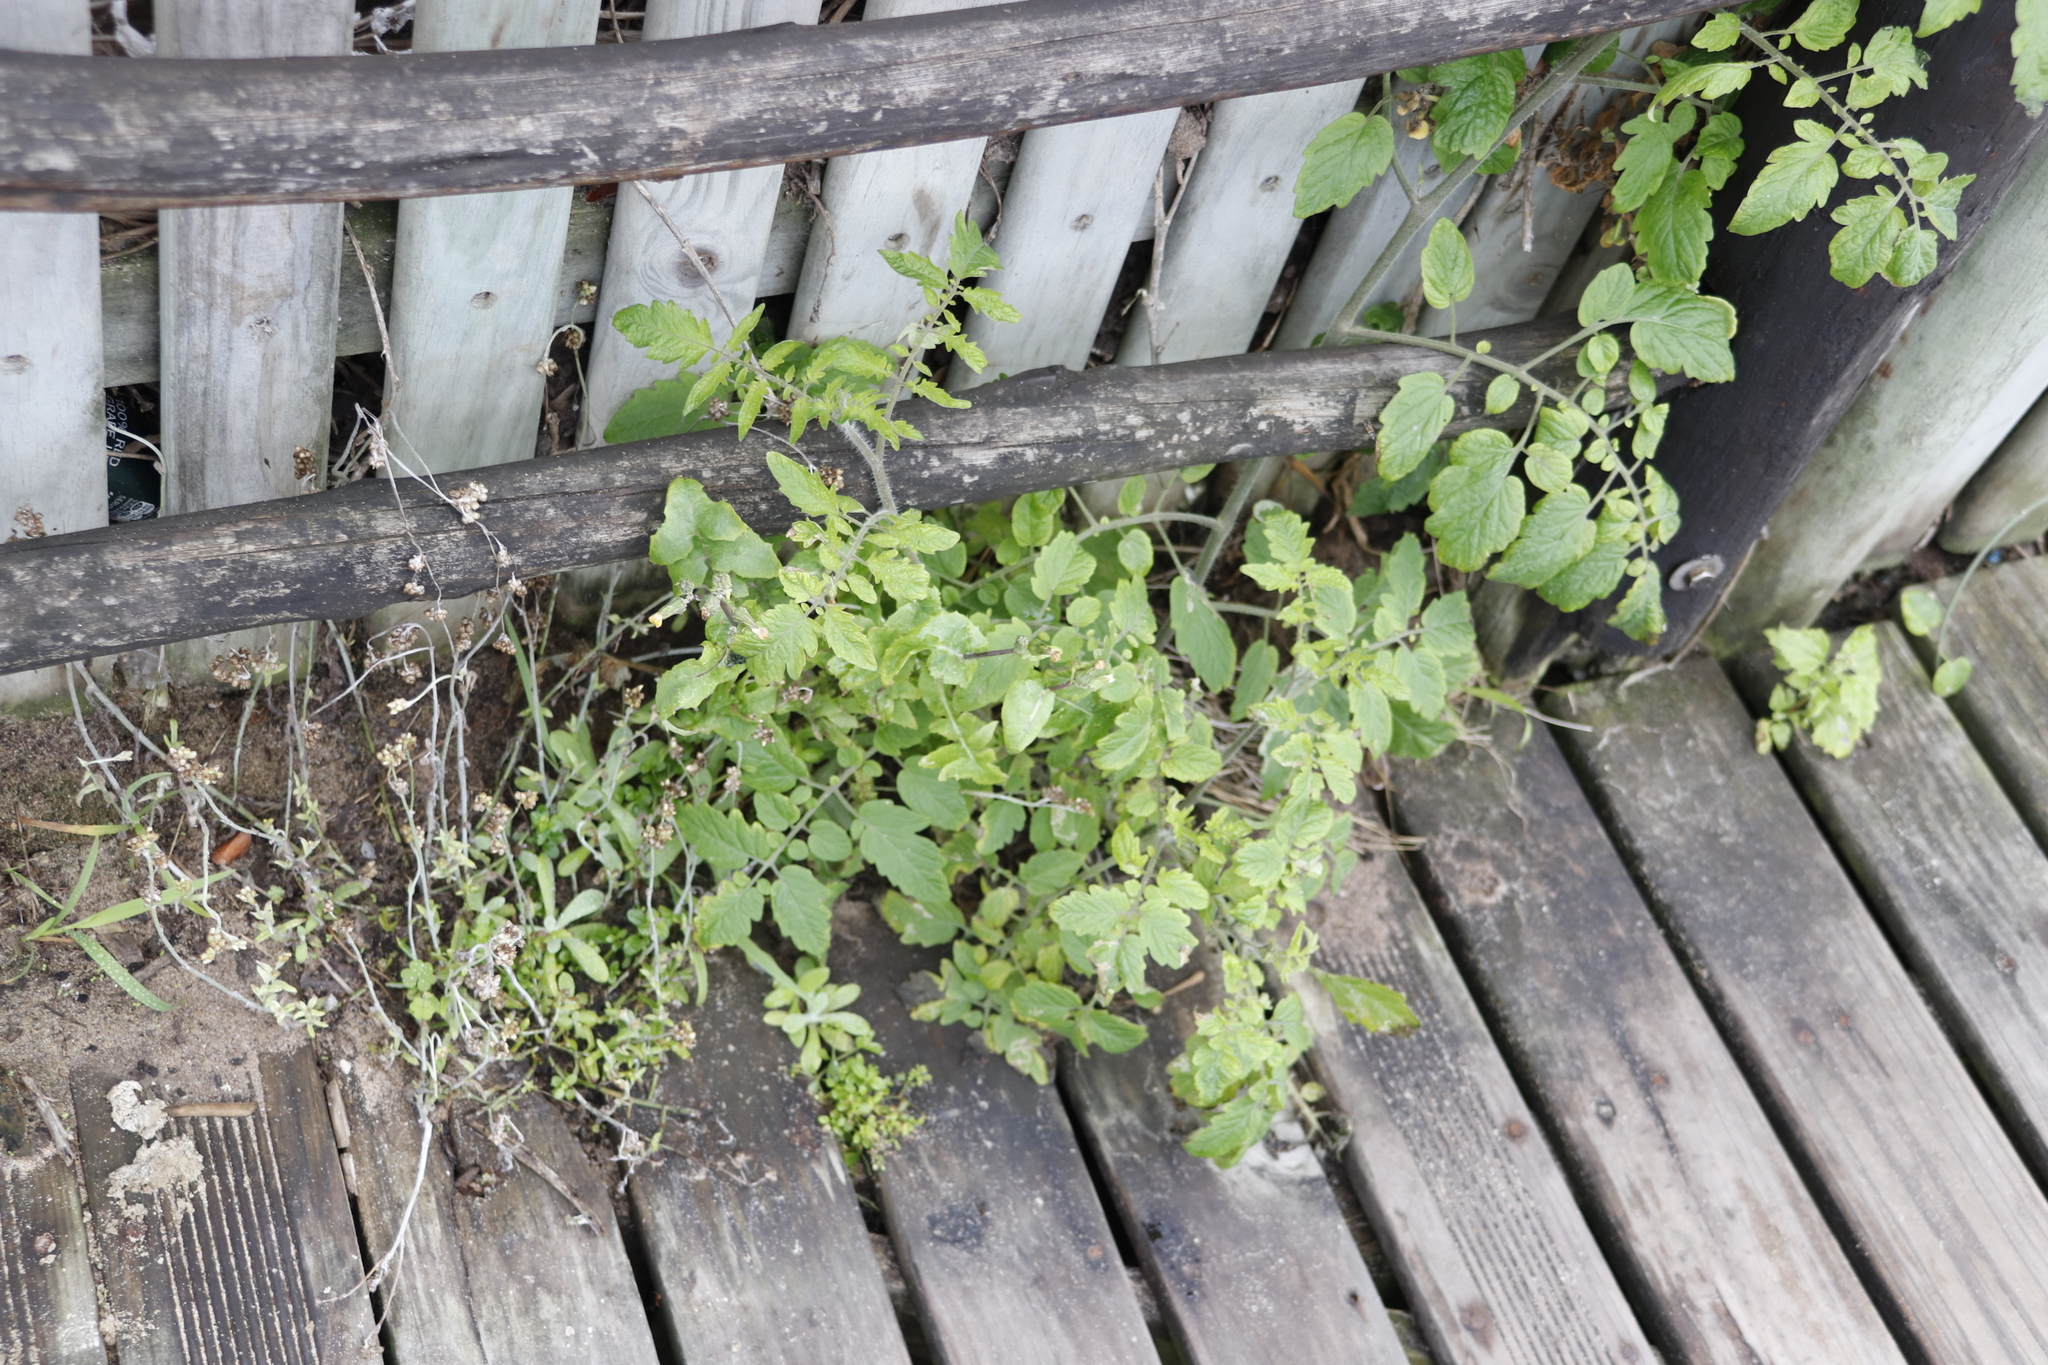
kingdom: Plantae
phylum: Tracheophyta
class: Magnoliopsida
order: Solanales
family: Solanaceae
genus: Solanum
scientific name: Solanum lycopersicum
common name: Garden tomato
